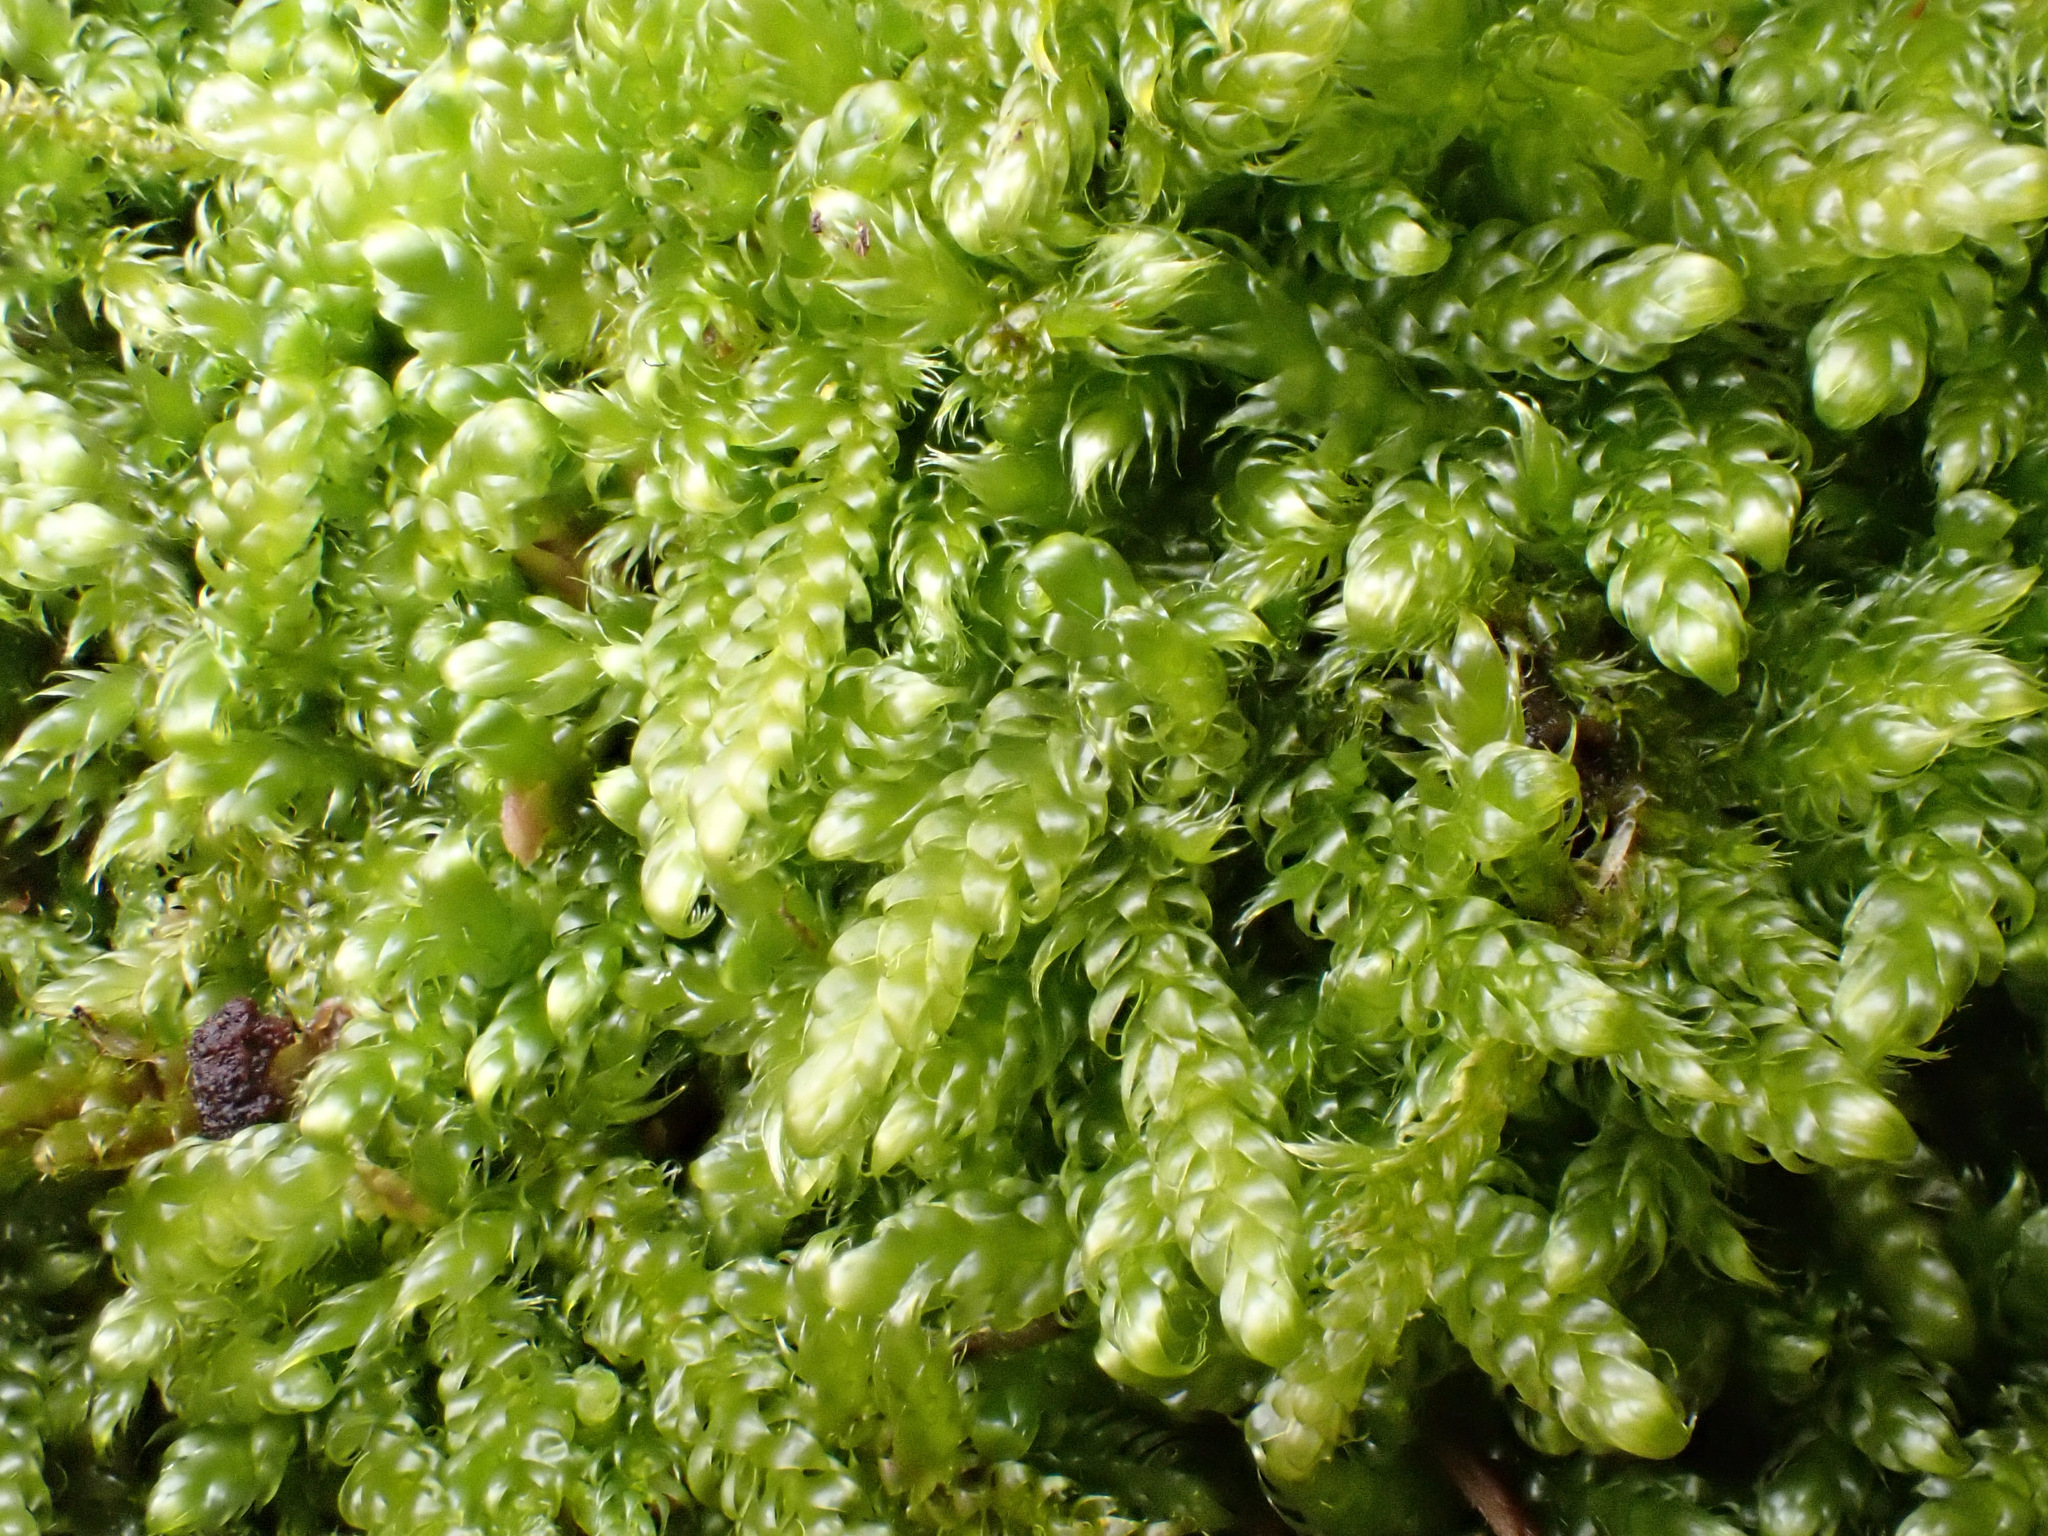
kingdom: Plantae
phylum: Bryophyta
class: Bryopsida
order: Hypnales
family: Hypnaceae
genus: Hypnum
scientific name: Hypnum cupressiforme
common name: Cypress-leaved plait-moss
